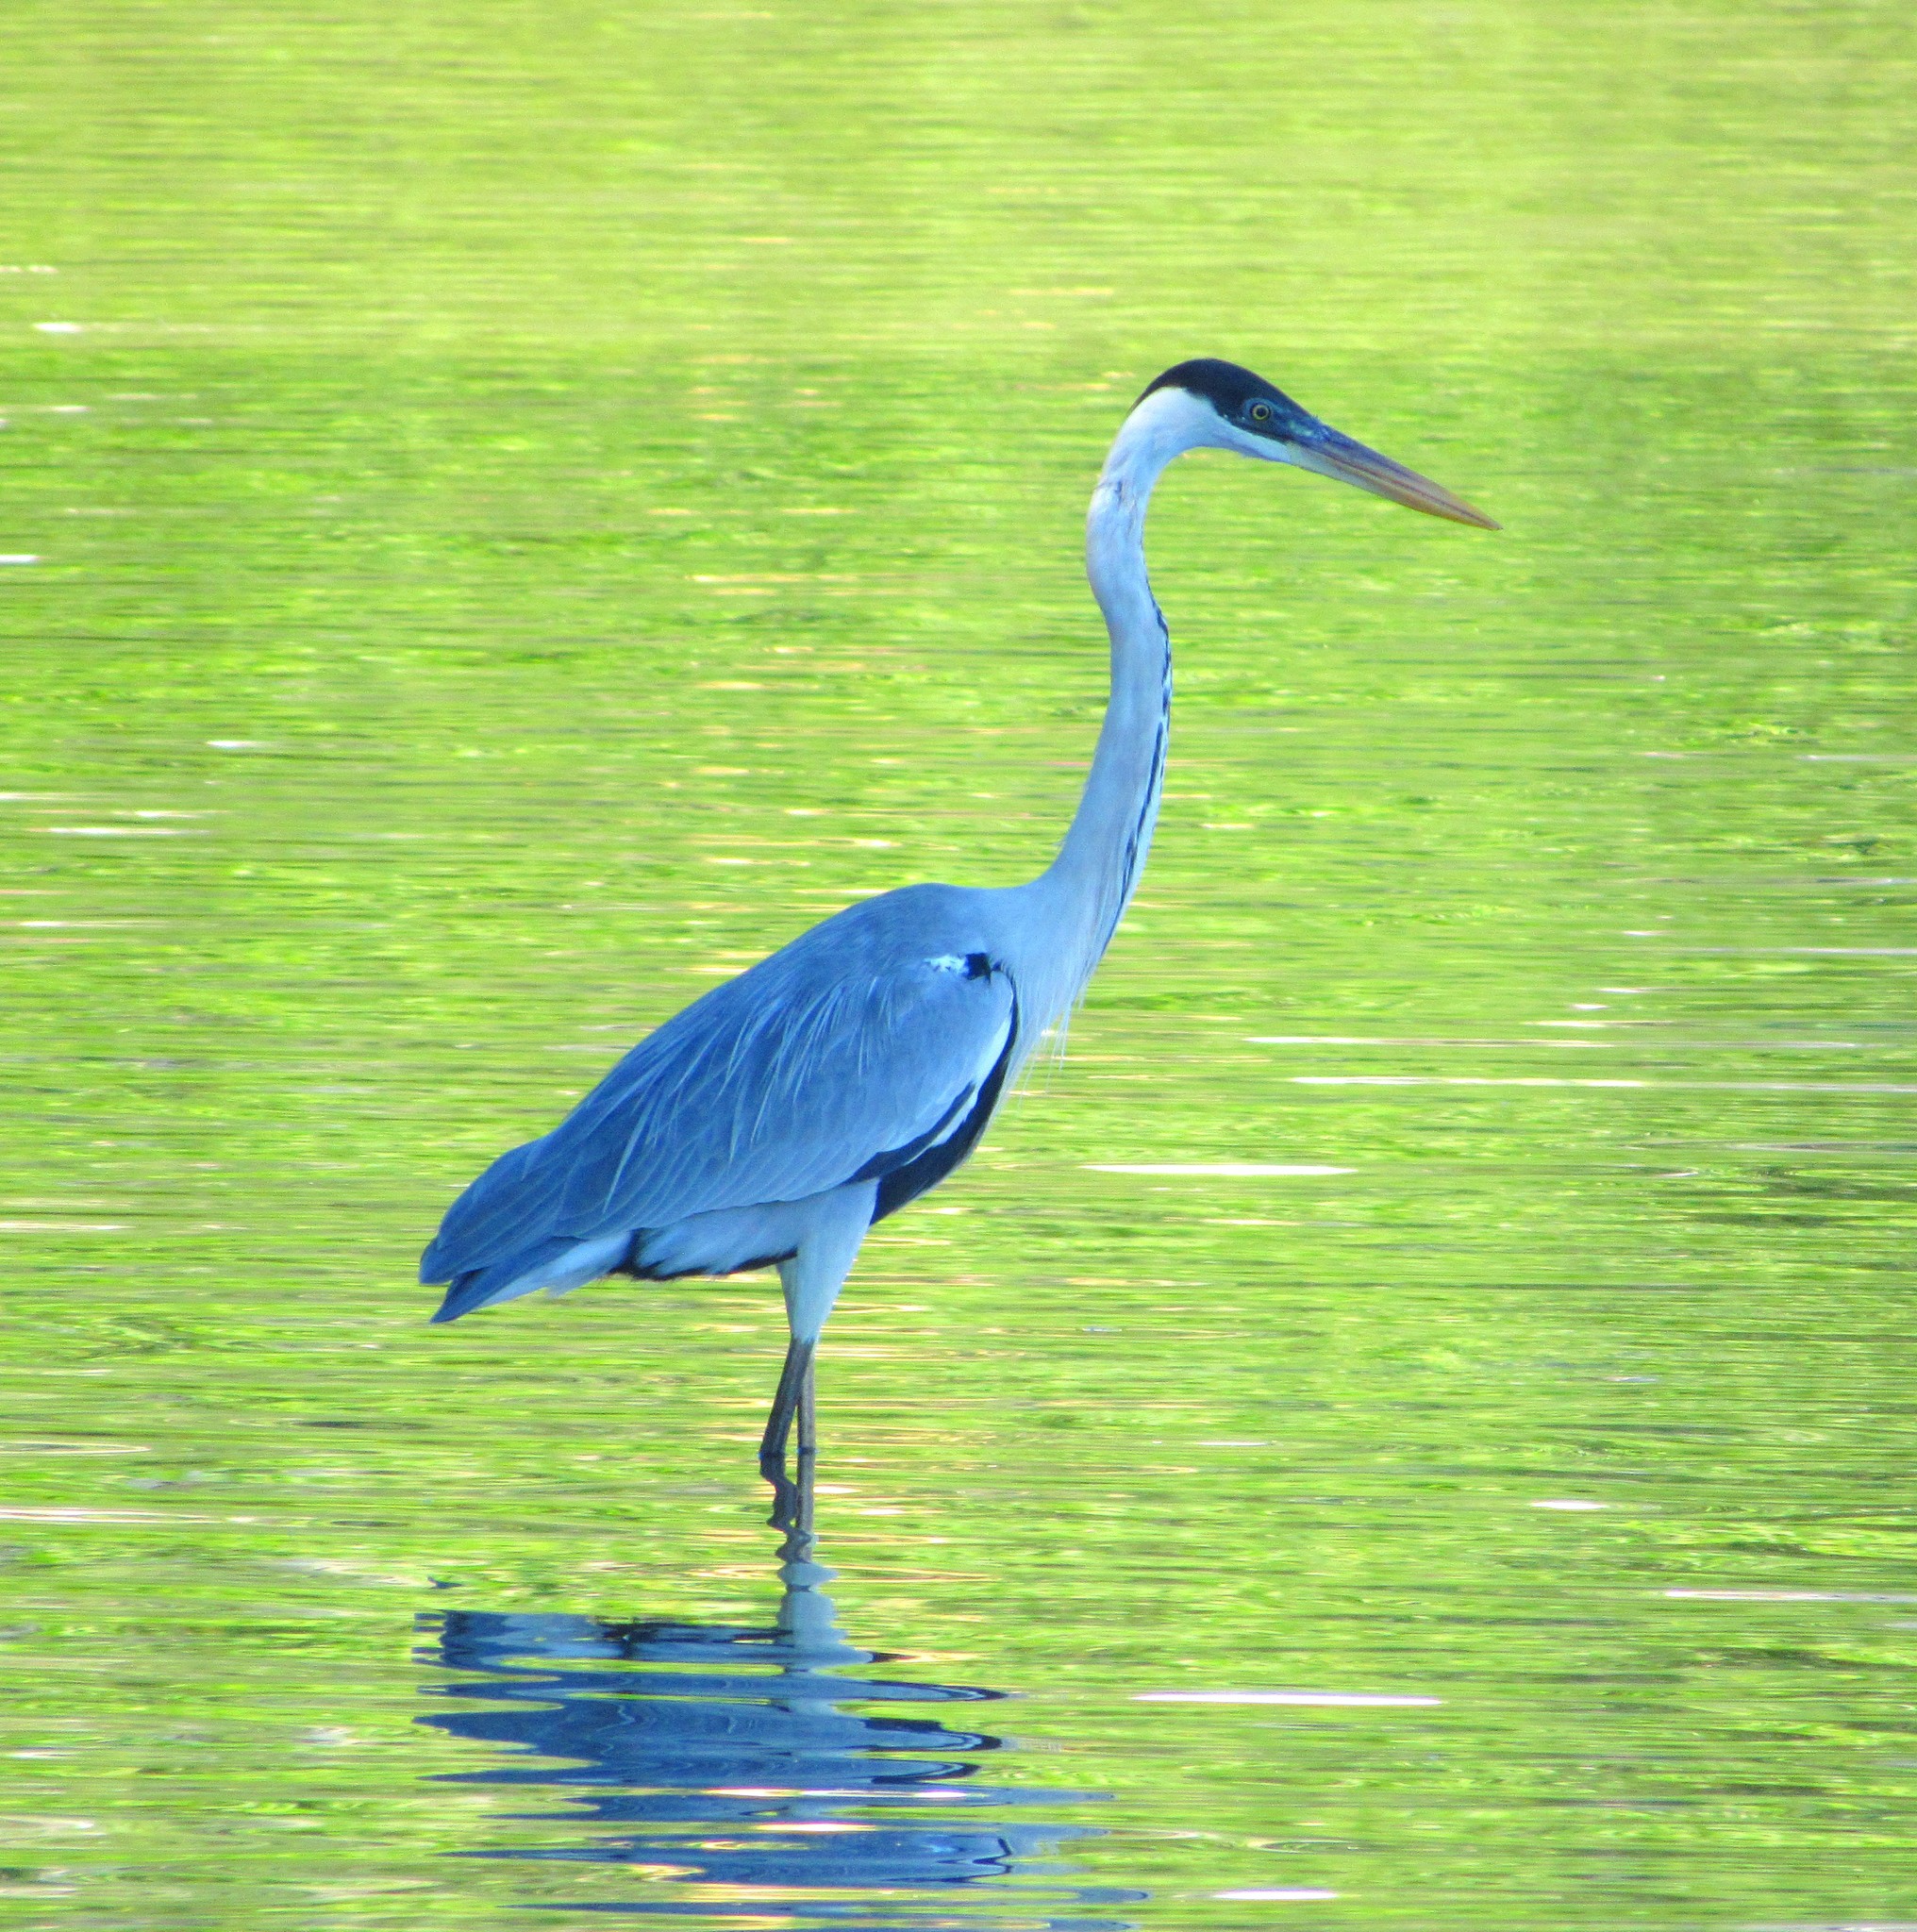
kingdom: Animalia
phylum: Chordata
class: Aves
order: Pelecaniformes
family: Ardeidae
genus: Ardea
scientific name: Ardea cocoi
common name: Cocoi heron
